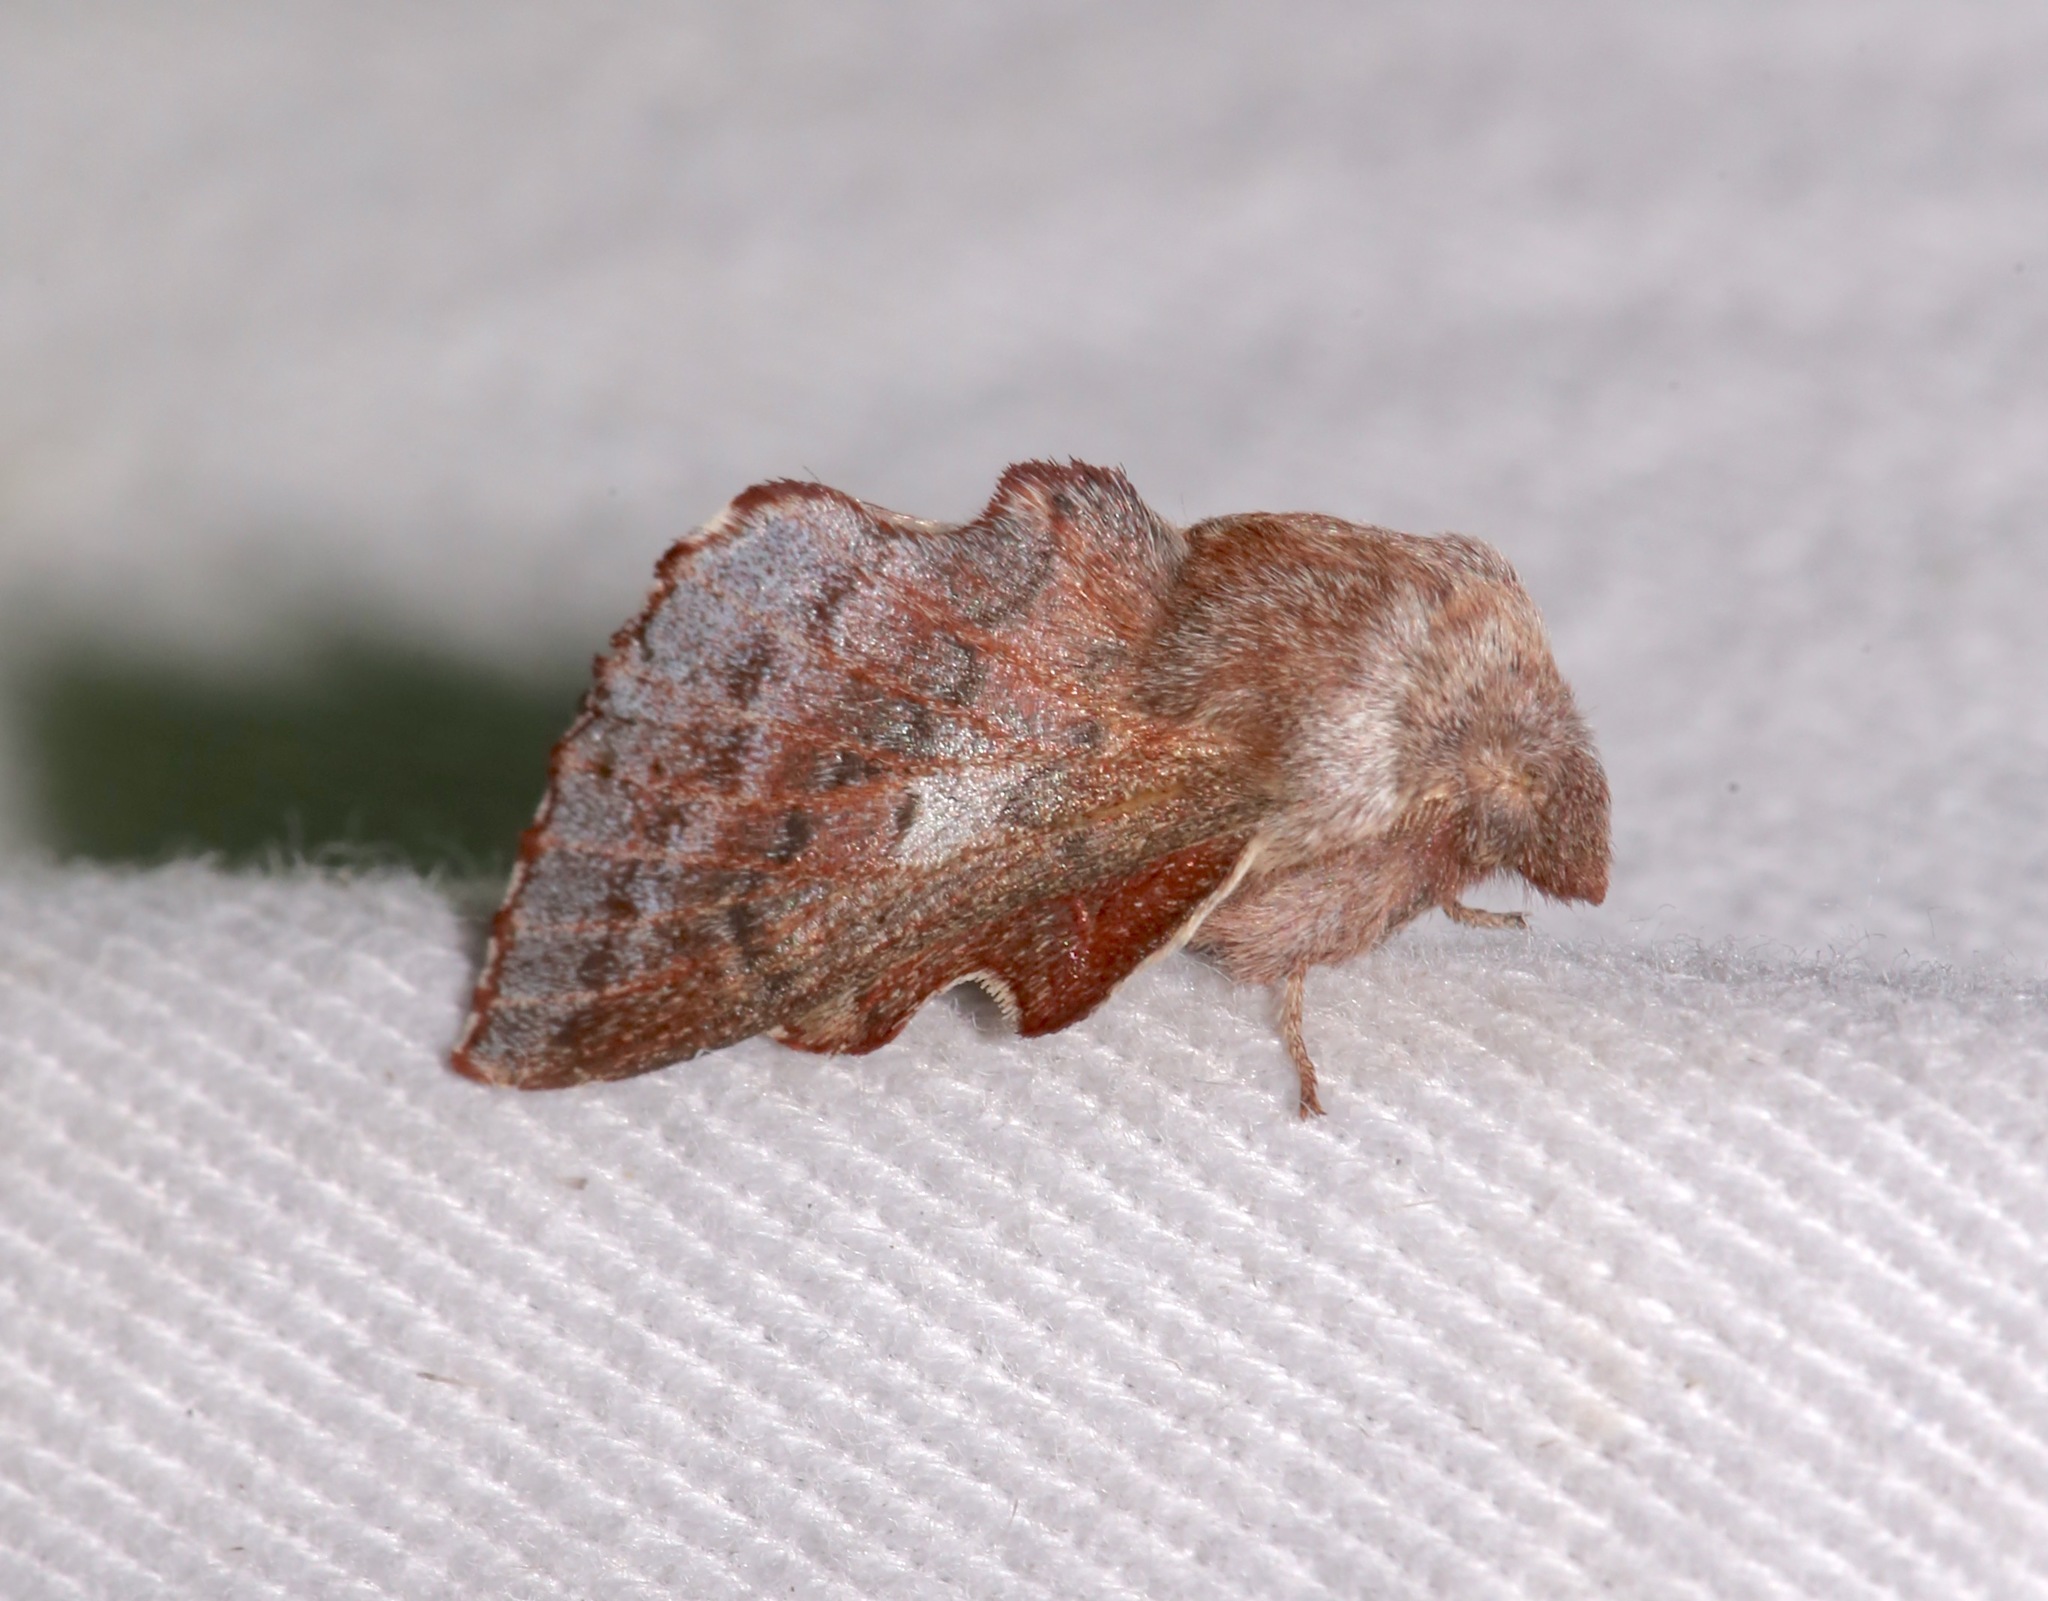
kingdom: Animalia
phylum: Arthropoda
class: Insecta
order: Lepidoptera
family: Lasiocampidae
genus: Phyllodesma
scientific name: Phyllodesma americana
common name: American lappet moth
